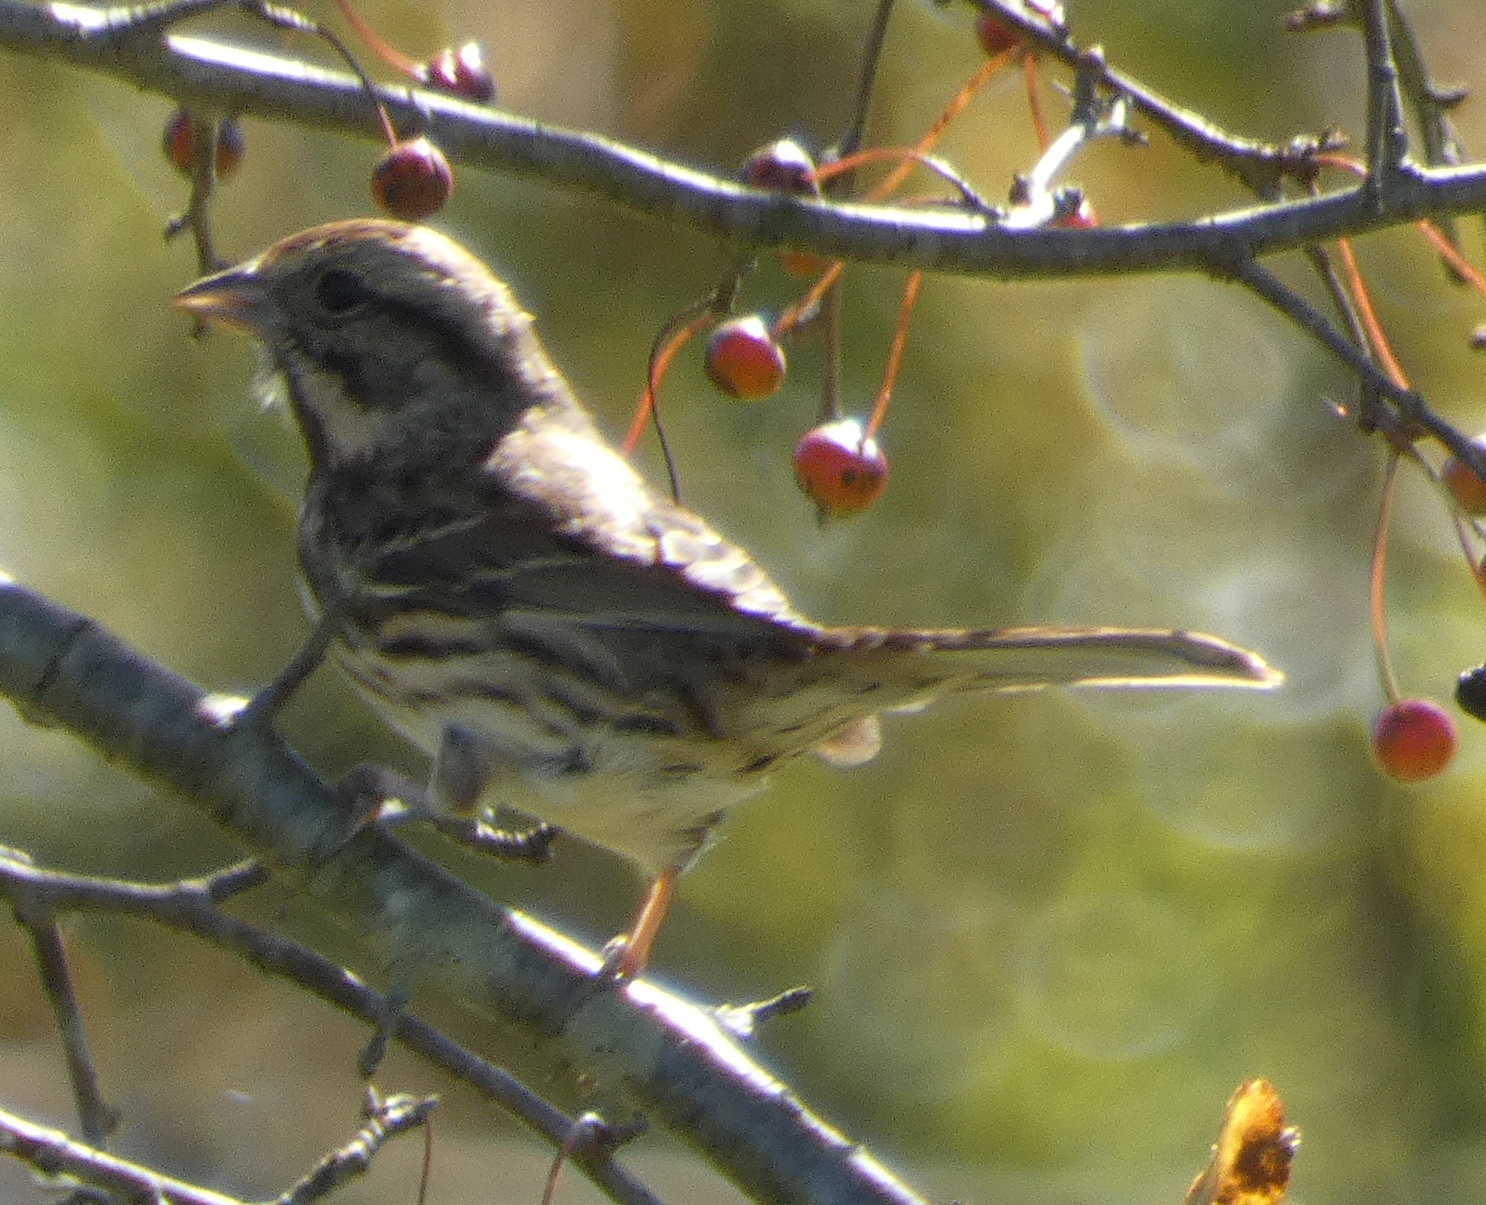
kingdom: Animalia
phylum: Chordata
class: Aves
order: Passeriformes
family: Passerellidae
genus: Melospiza
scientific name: Melospiza melodia
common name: Song sparrow
